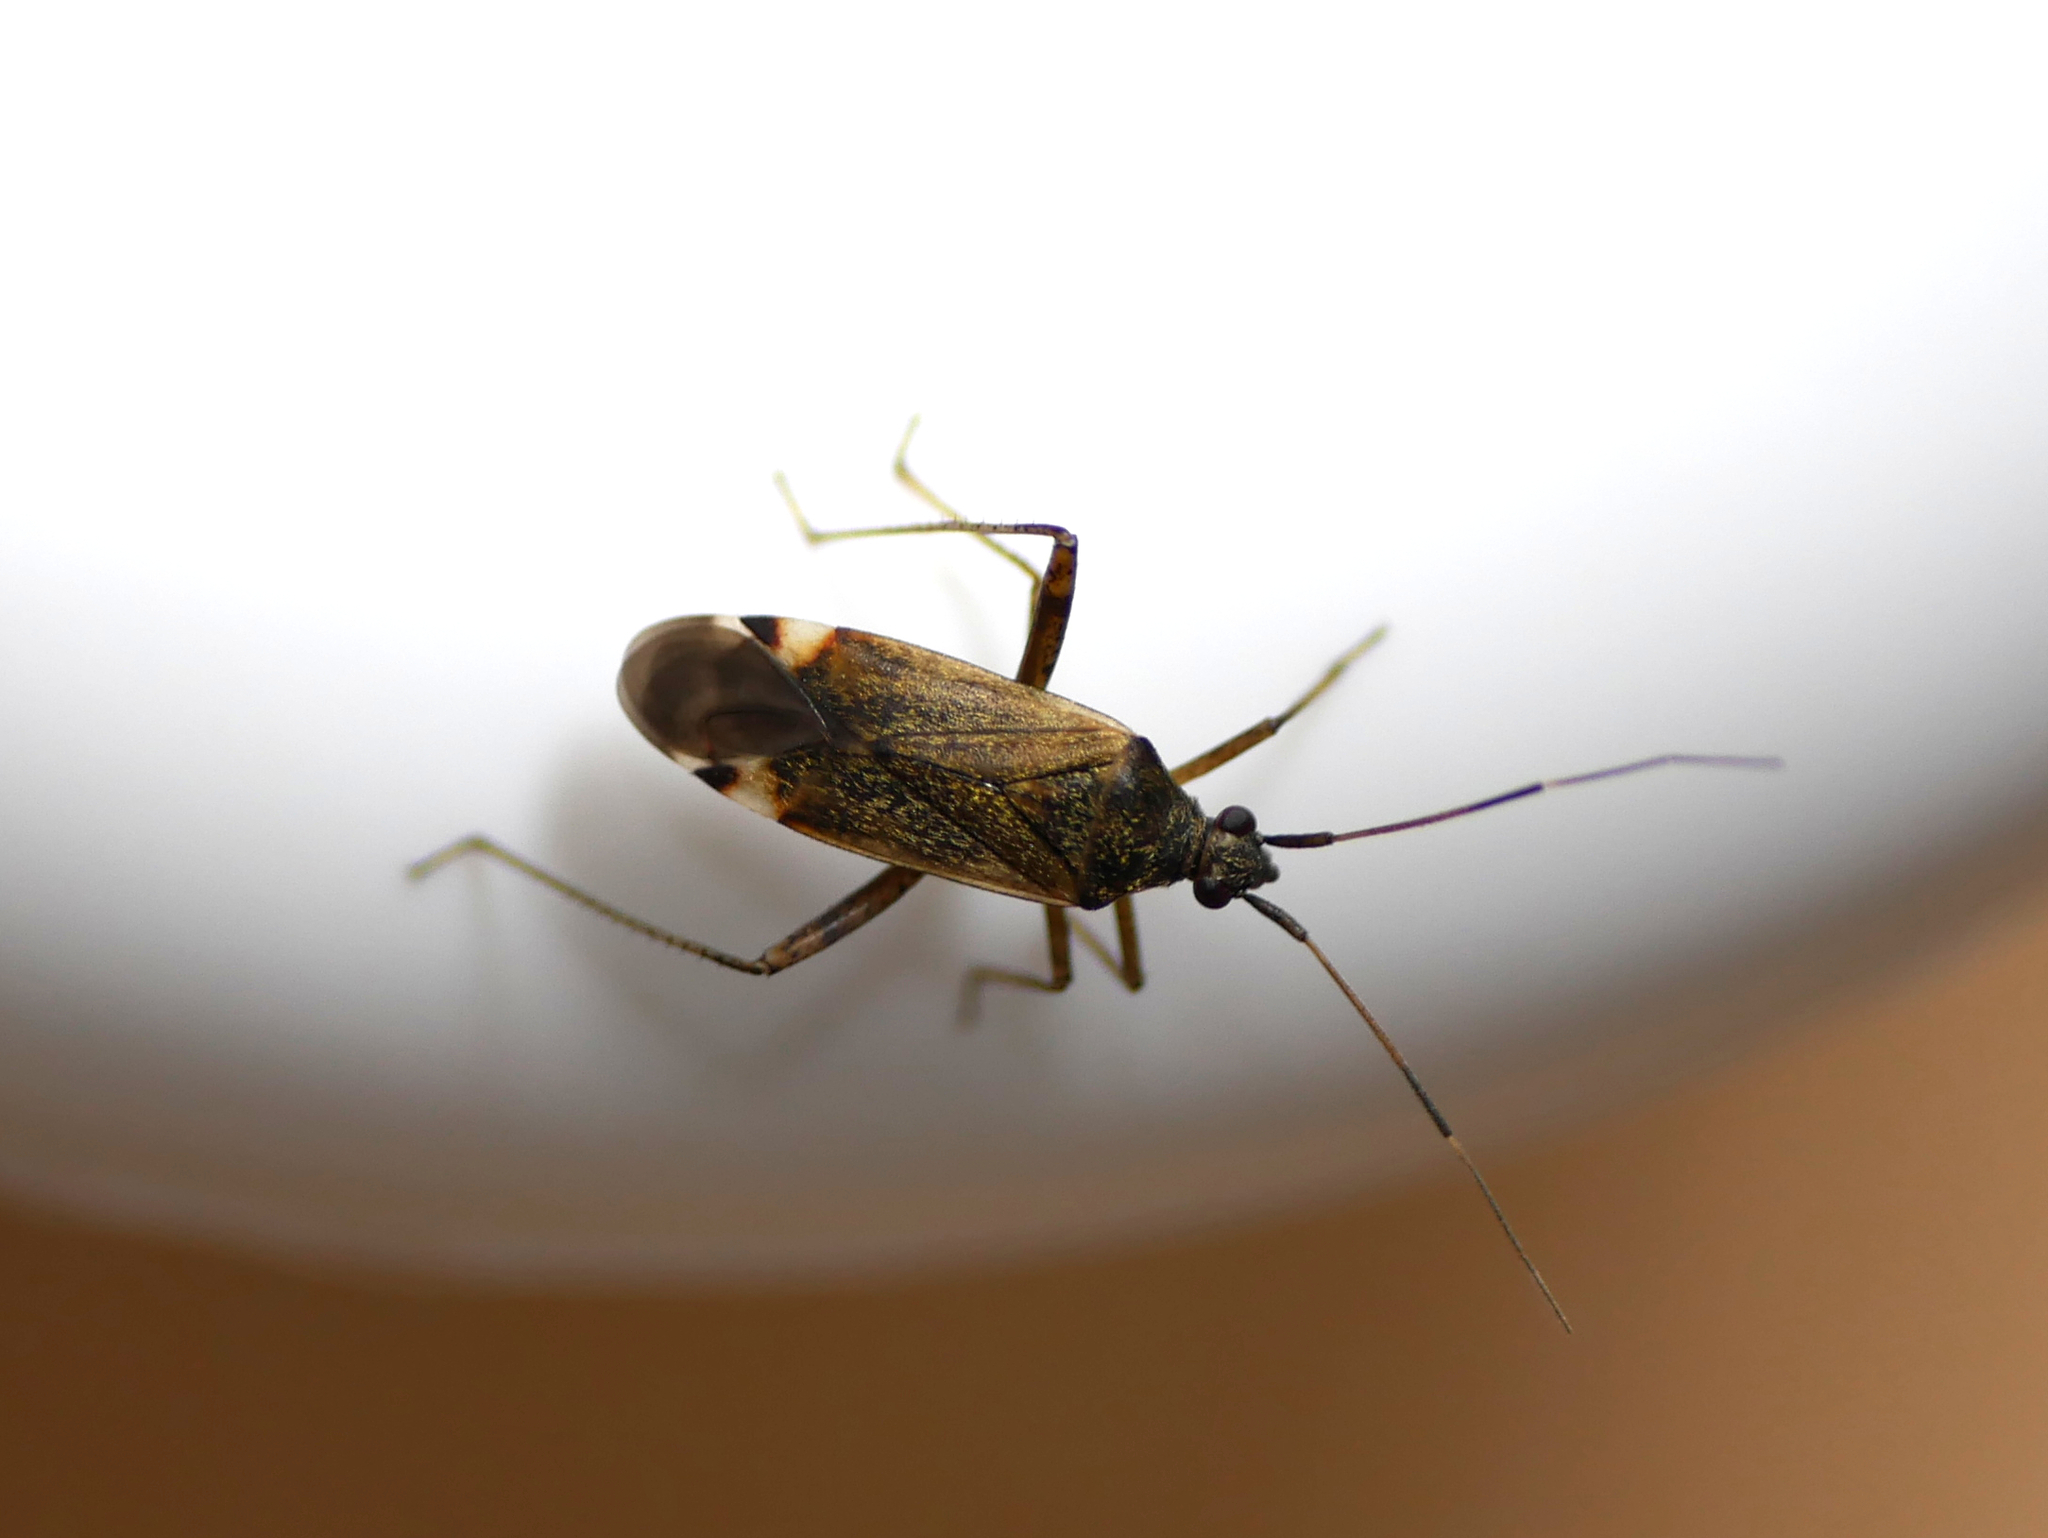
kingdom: Animalia
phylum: Arthropoda
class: Insecta
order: Hemiptera
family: Miridae
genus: Closterotomus
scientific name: Closterotomus fulvomaculatus
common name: Spotted plant bug
